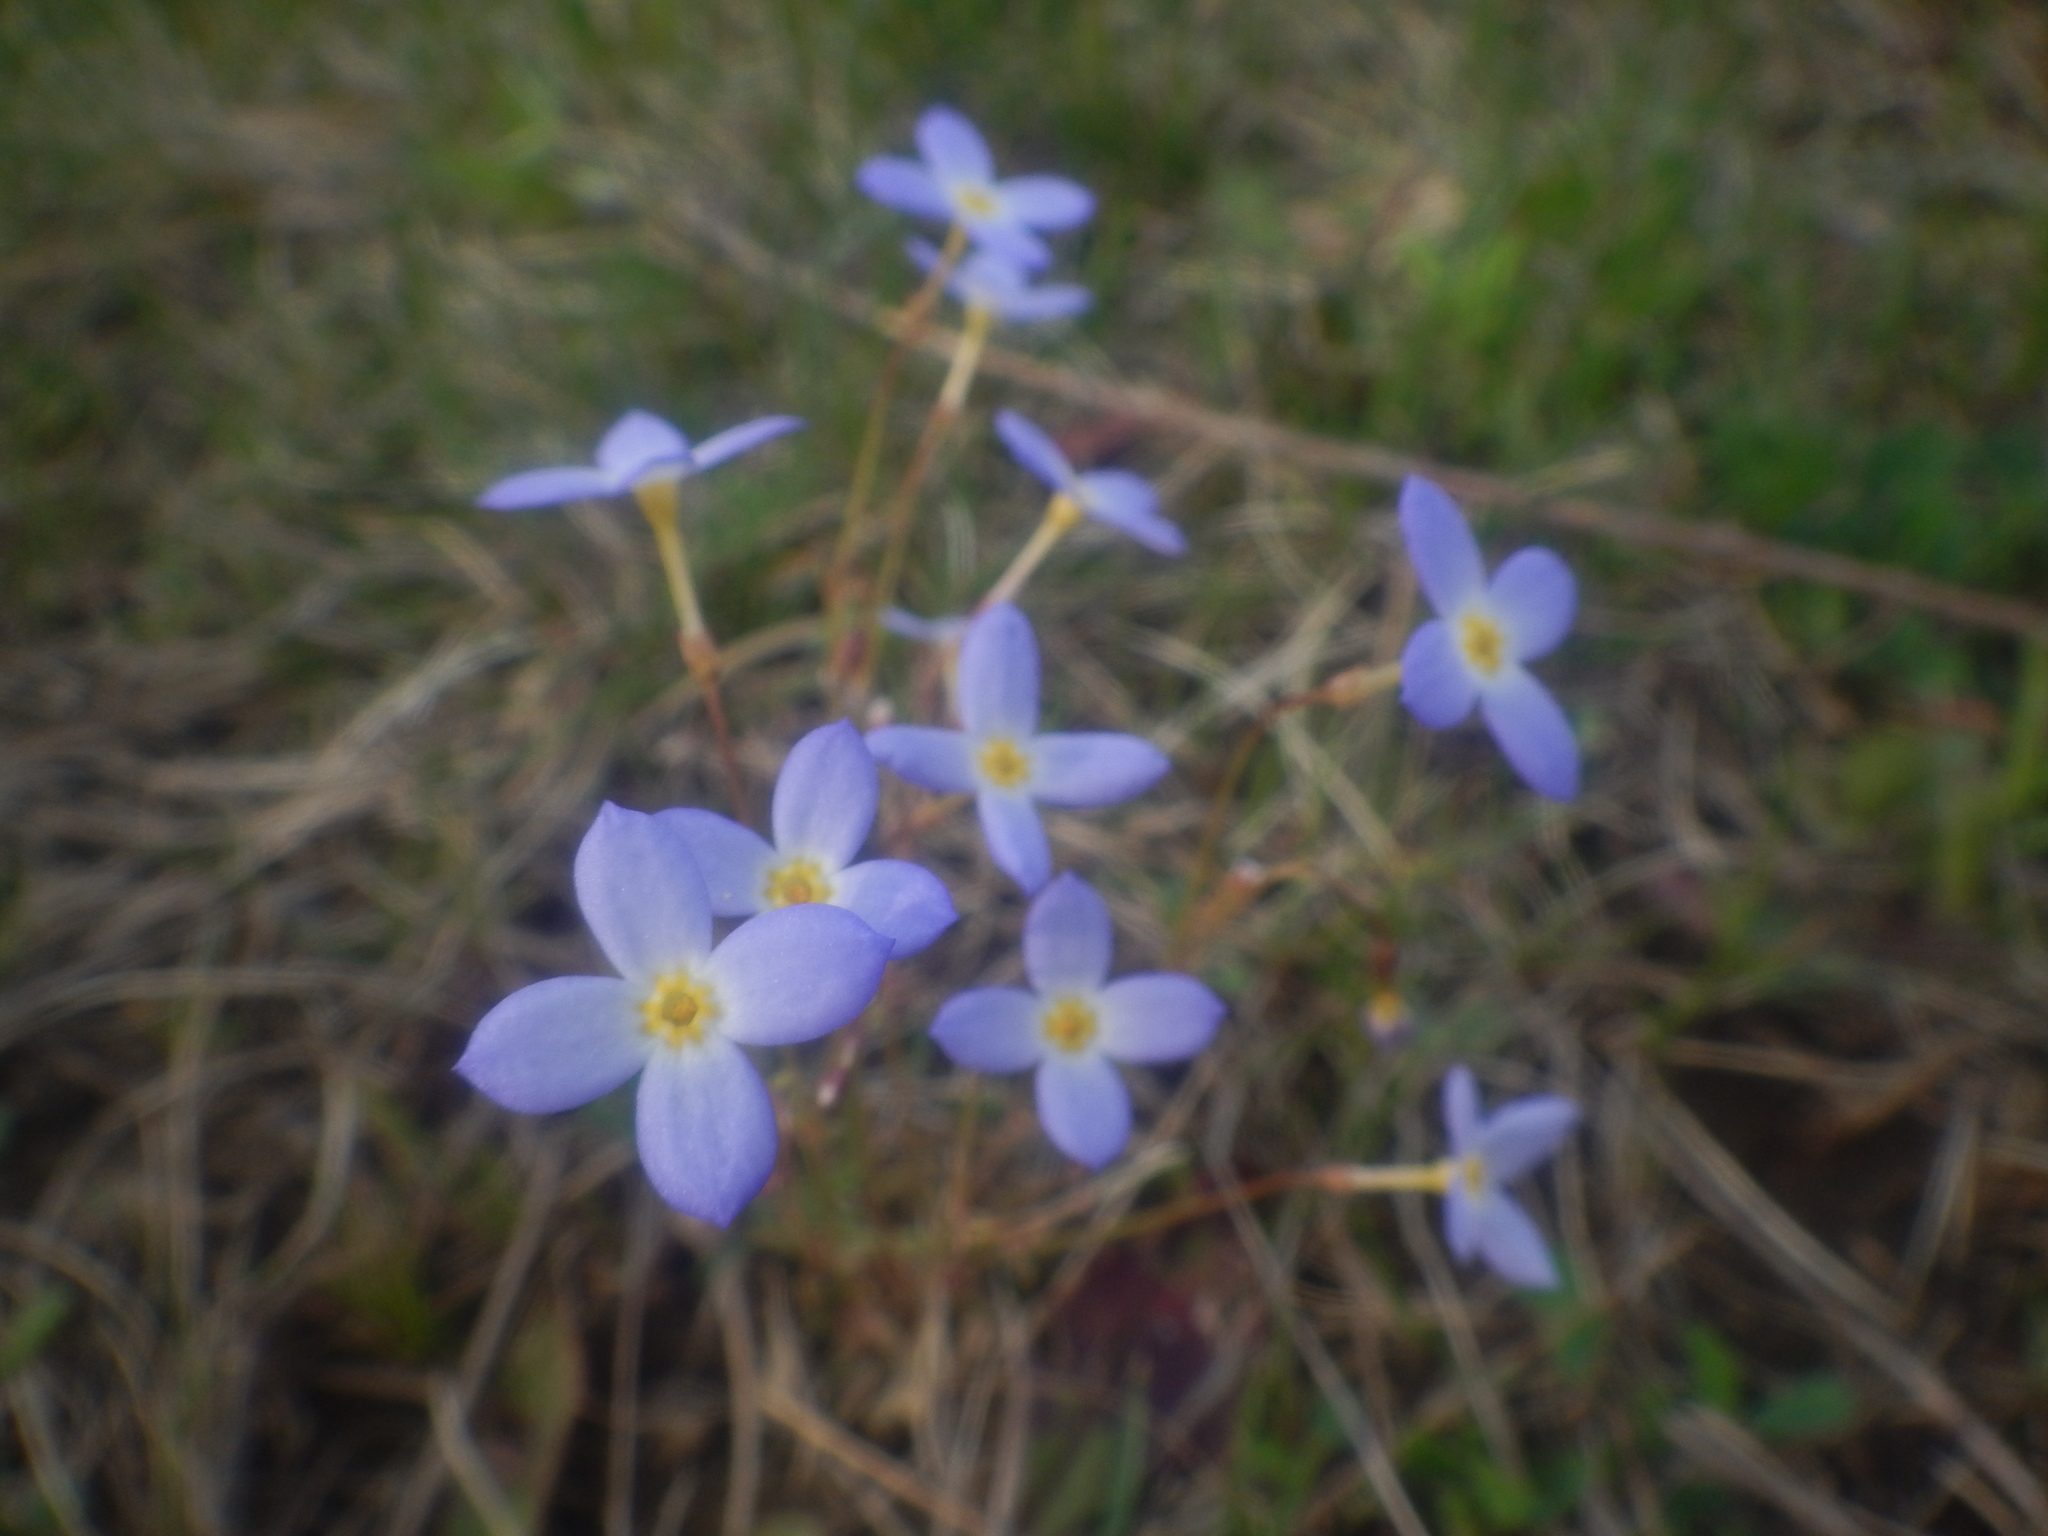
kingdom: Plantae
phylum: Tracheophyta
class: Magnoliopsida
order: Gentianales
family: Rubiaceae
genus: Houstonia
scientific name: Houstonia caerulea
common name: Bluets
